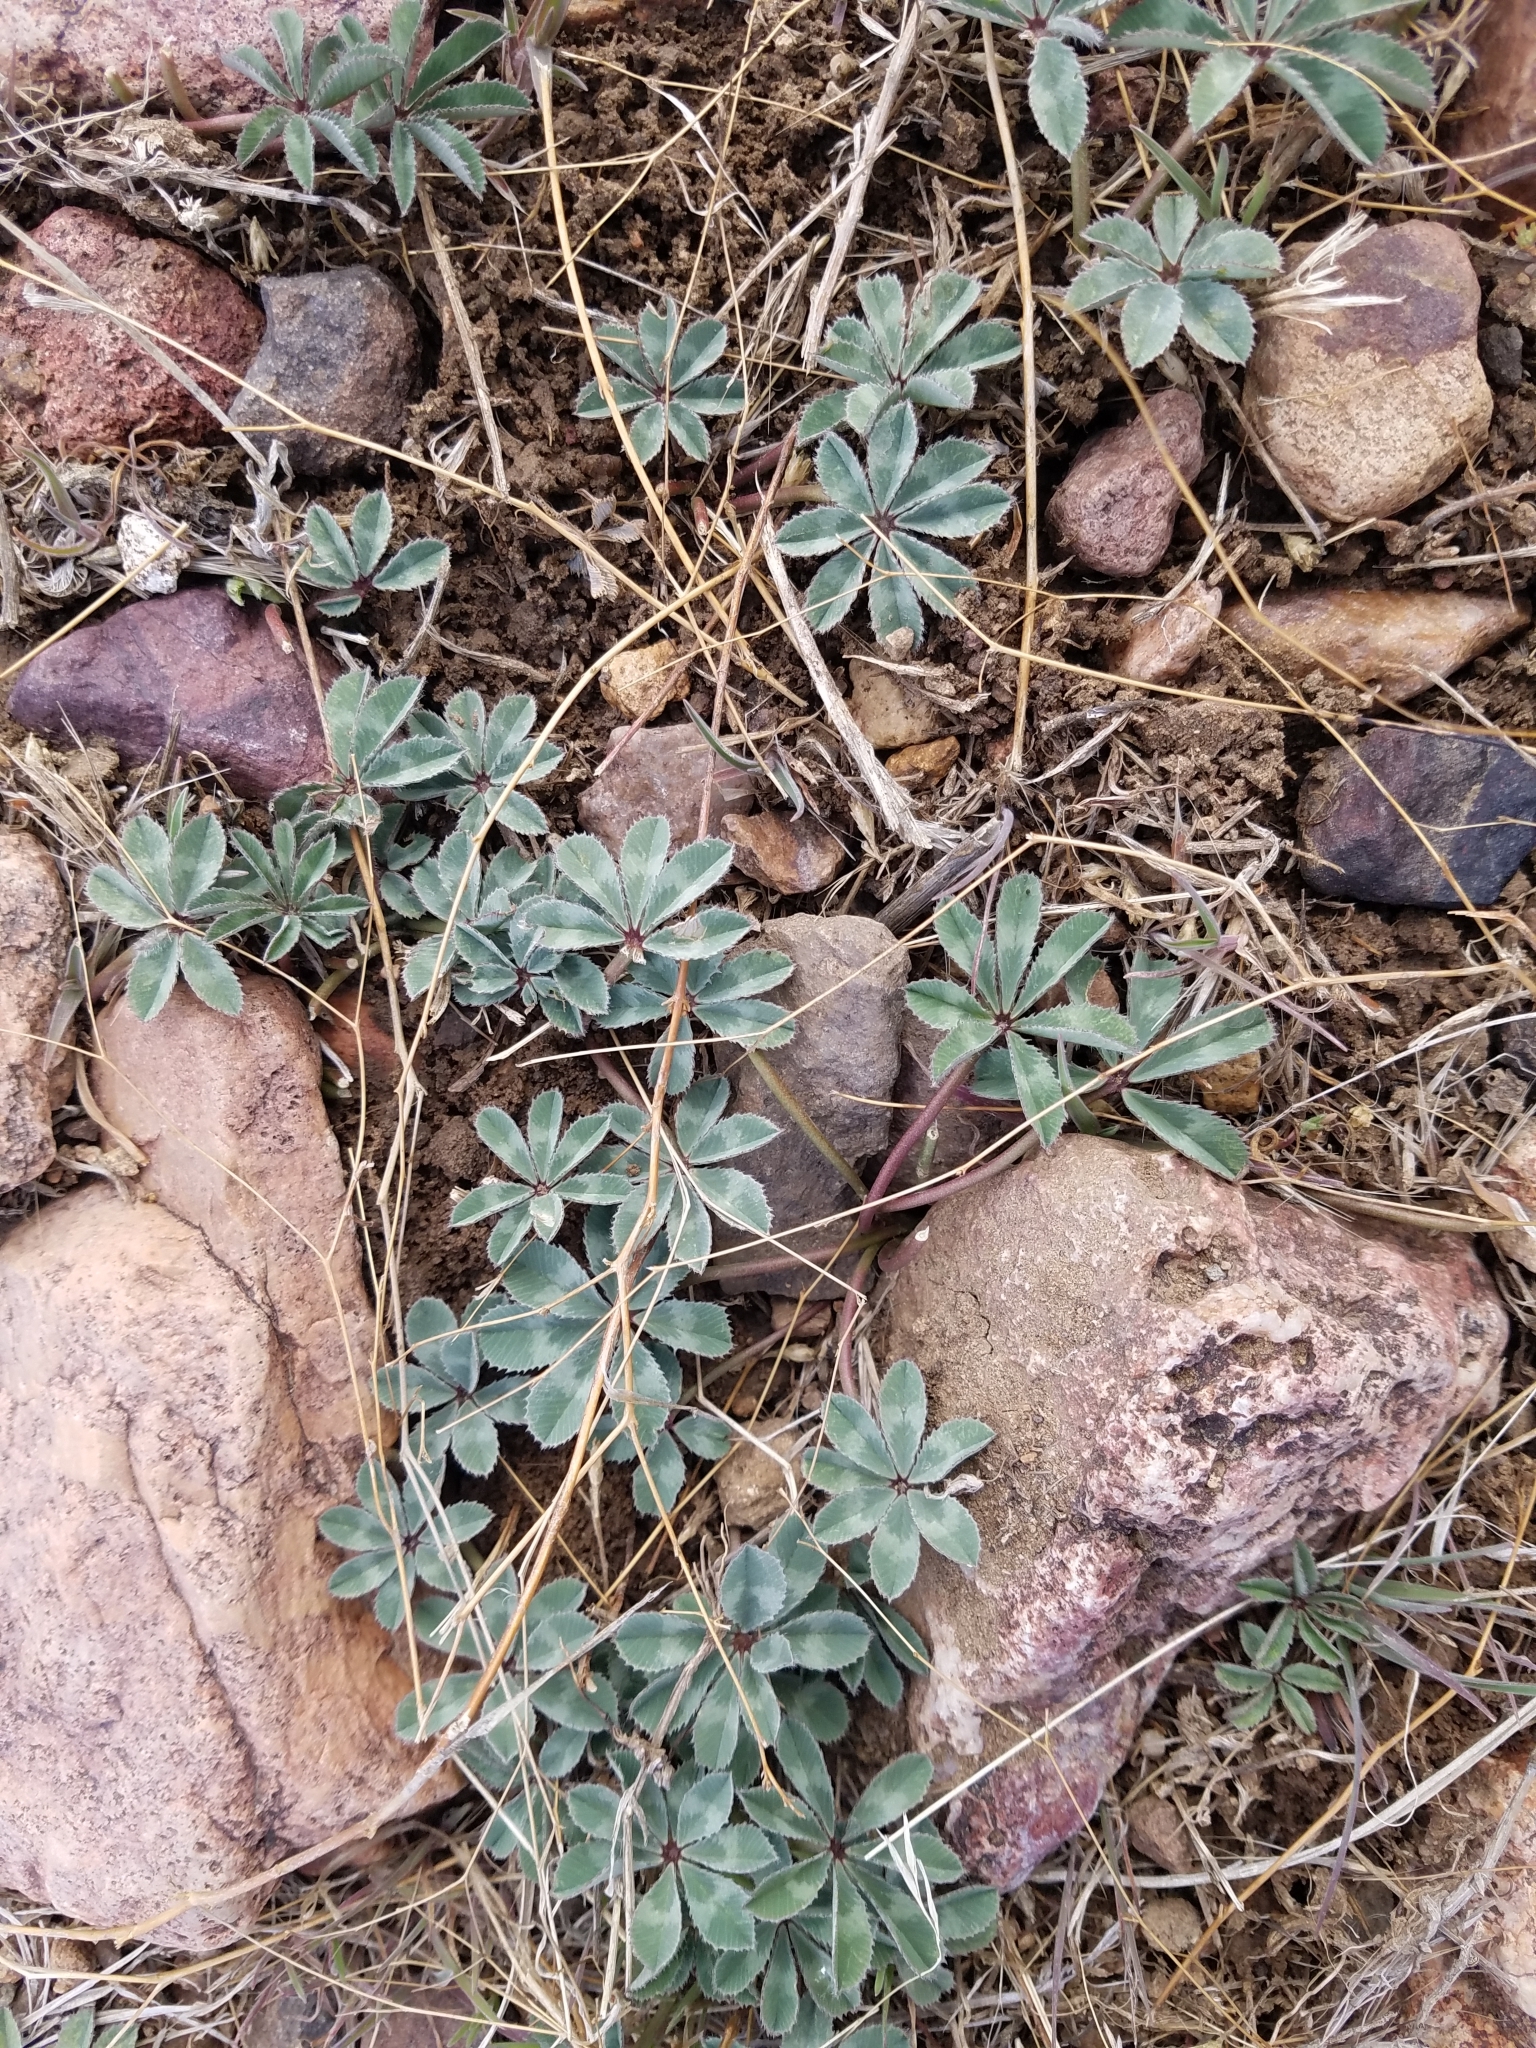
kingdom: Plantae
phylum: Tracheophyta
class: Magnoliopsida
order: Fabales
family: Fabaceae
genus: Trifolium
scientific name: Trifolium macrocephalum
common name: Large-head clover
